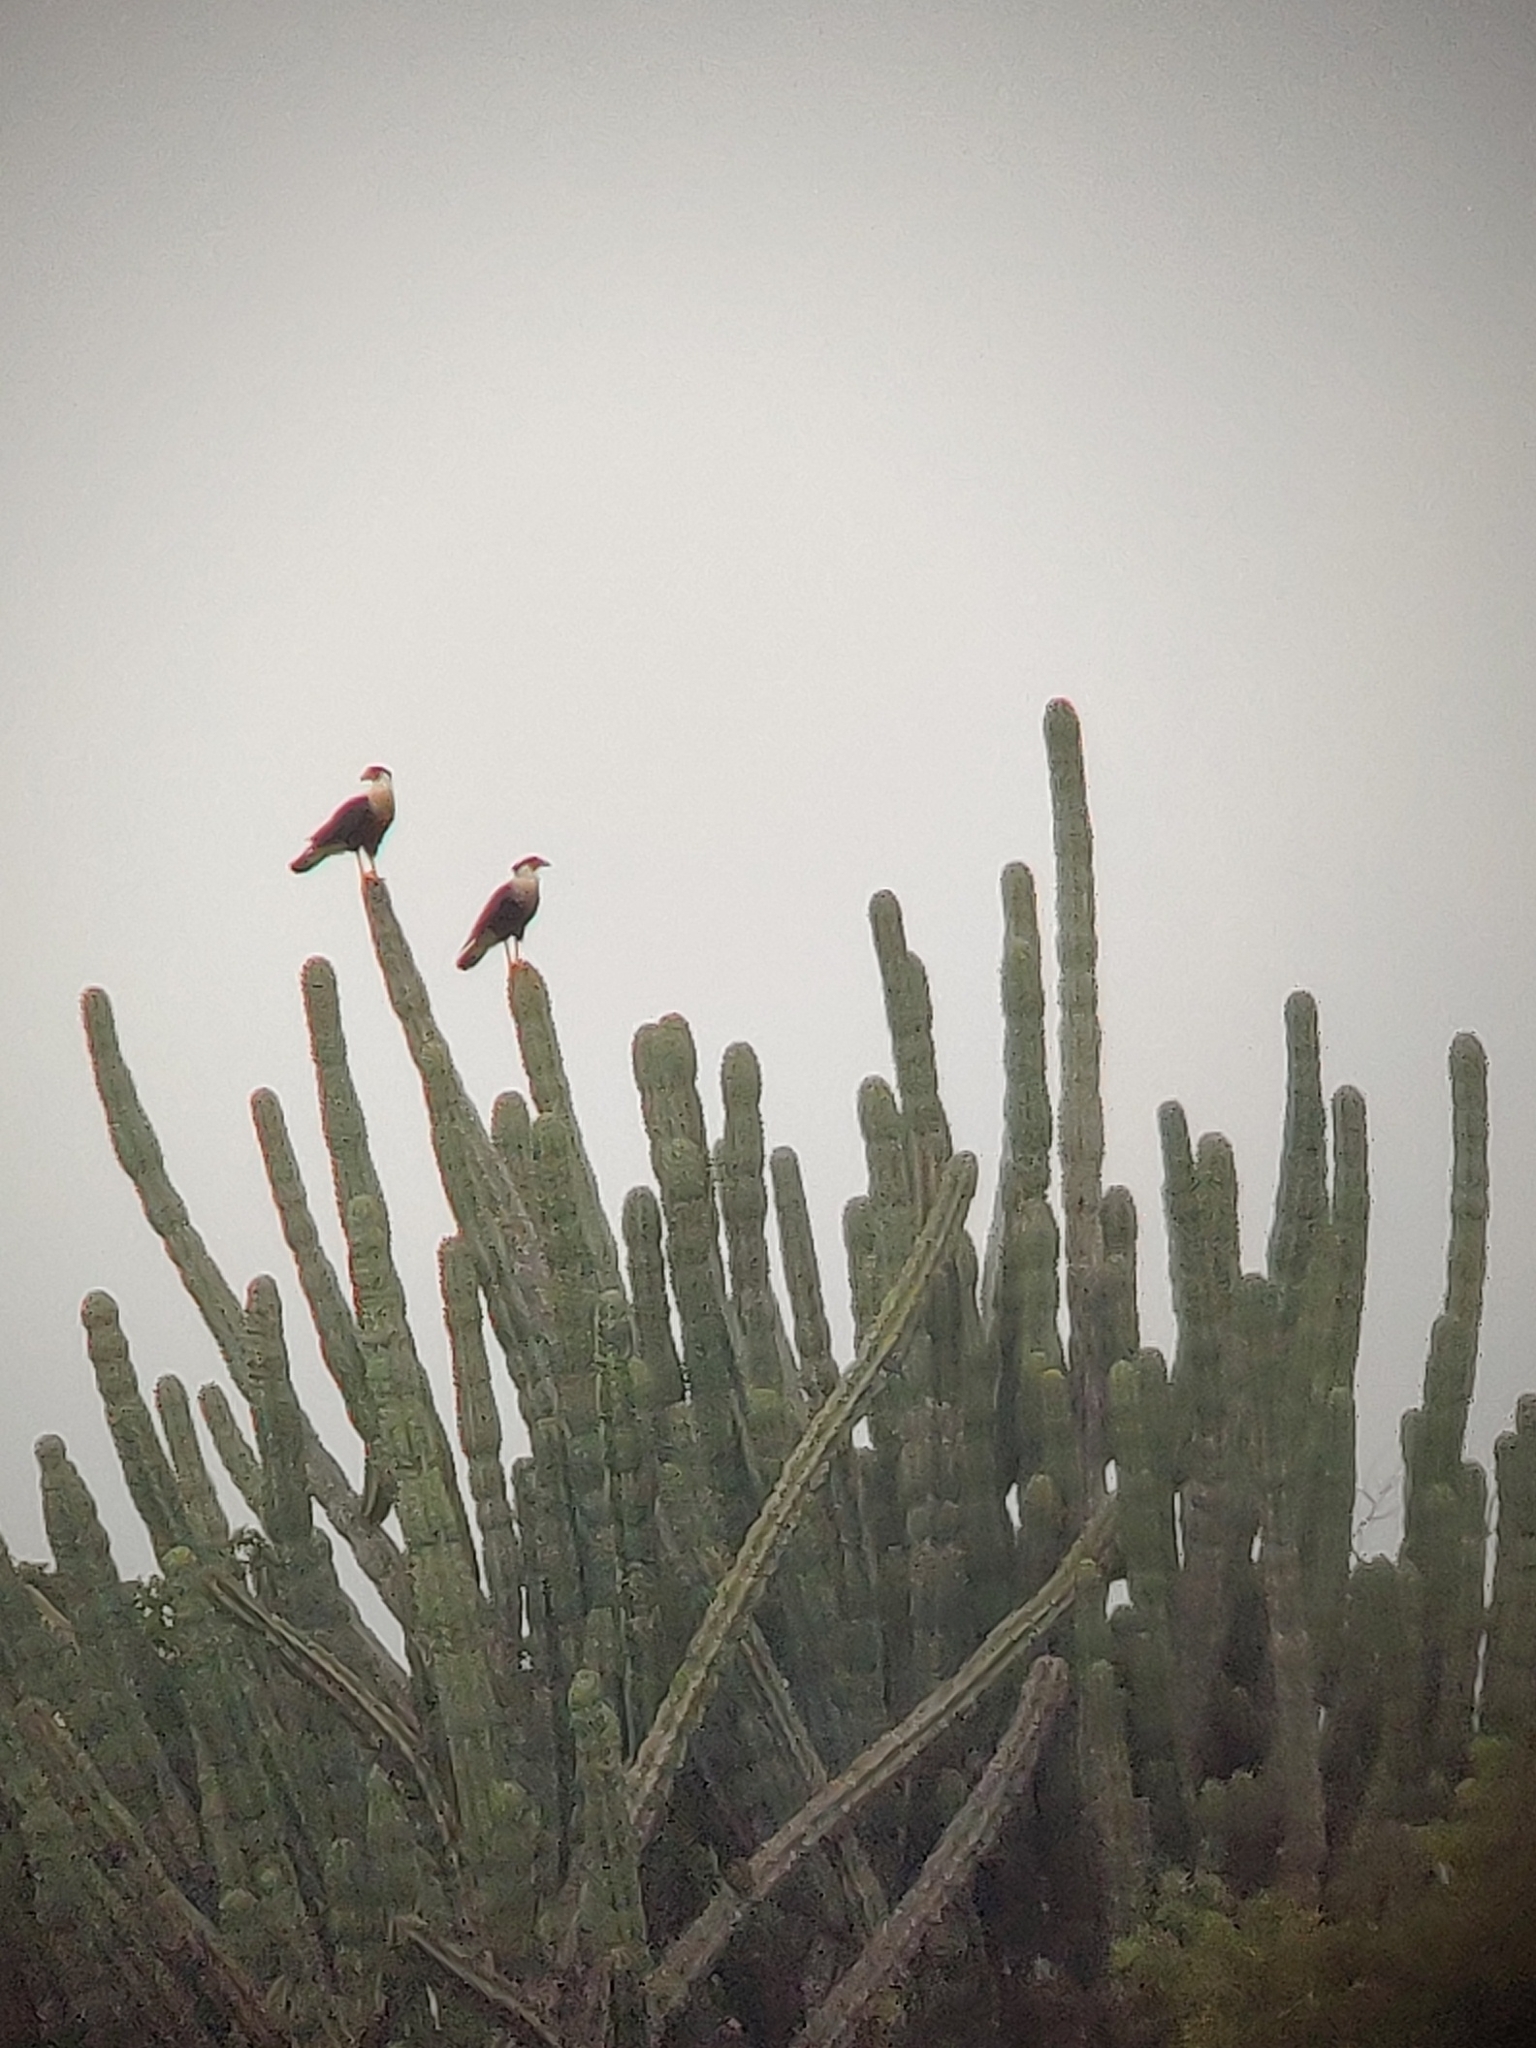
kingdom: Animalia
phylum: Chordata
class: Aves
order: Falconiformes
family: Falconidae
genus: Caracara
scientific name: Caracara plancus
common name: Southern caracara
